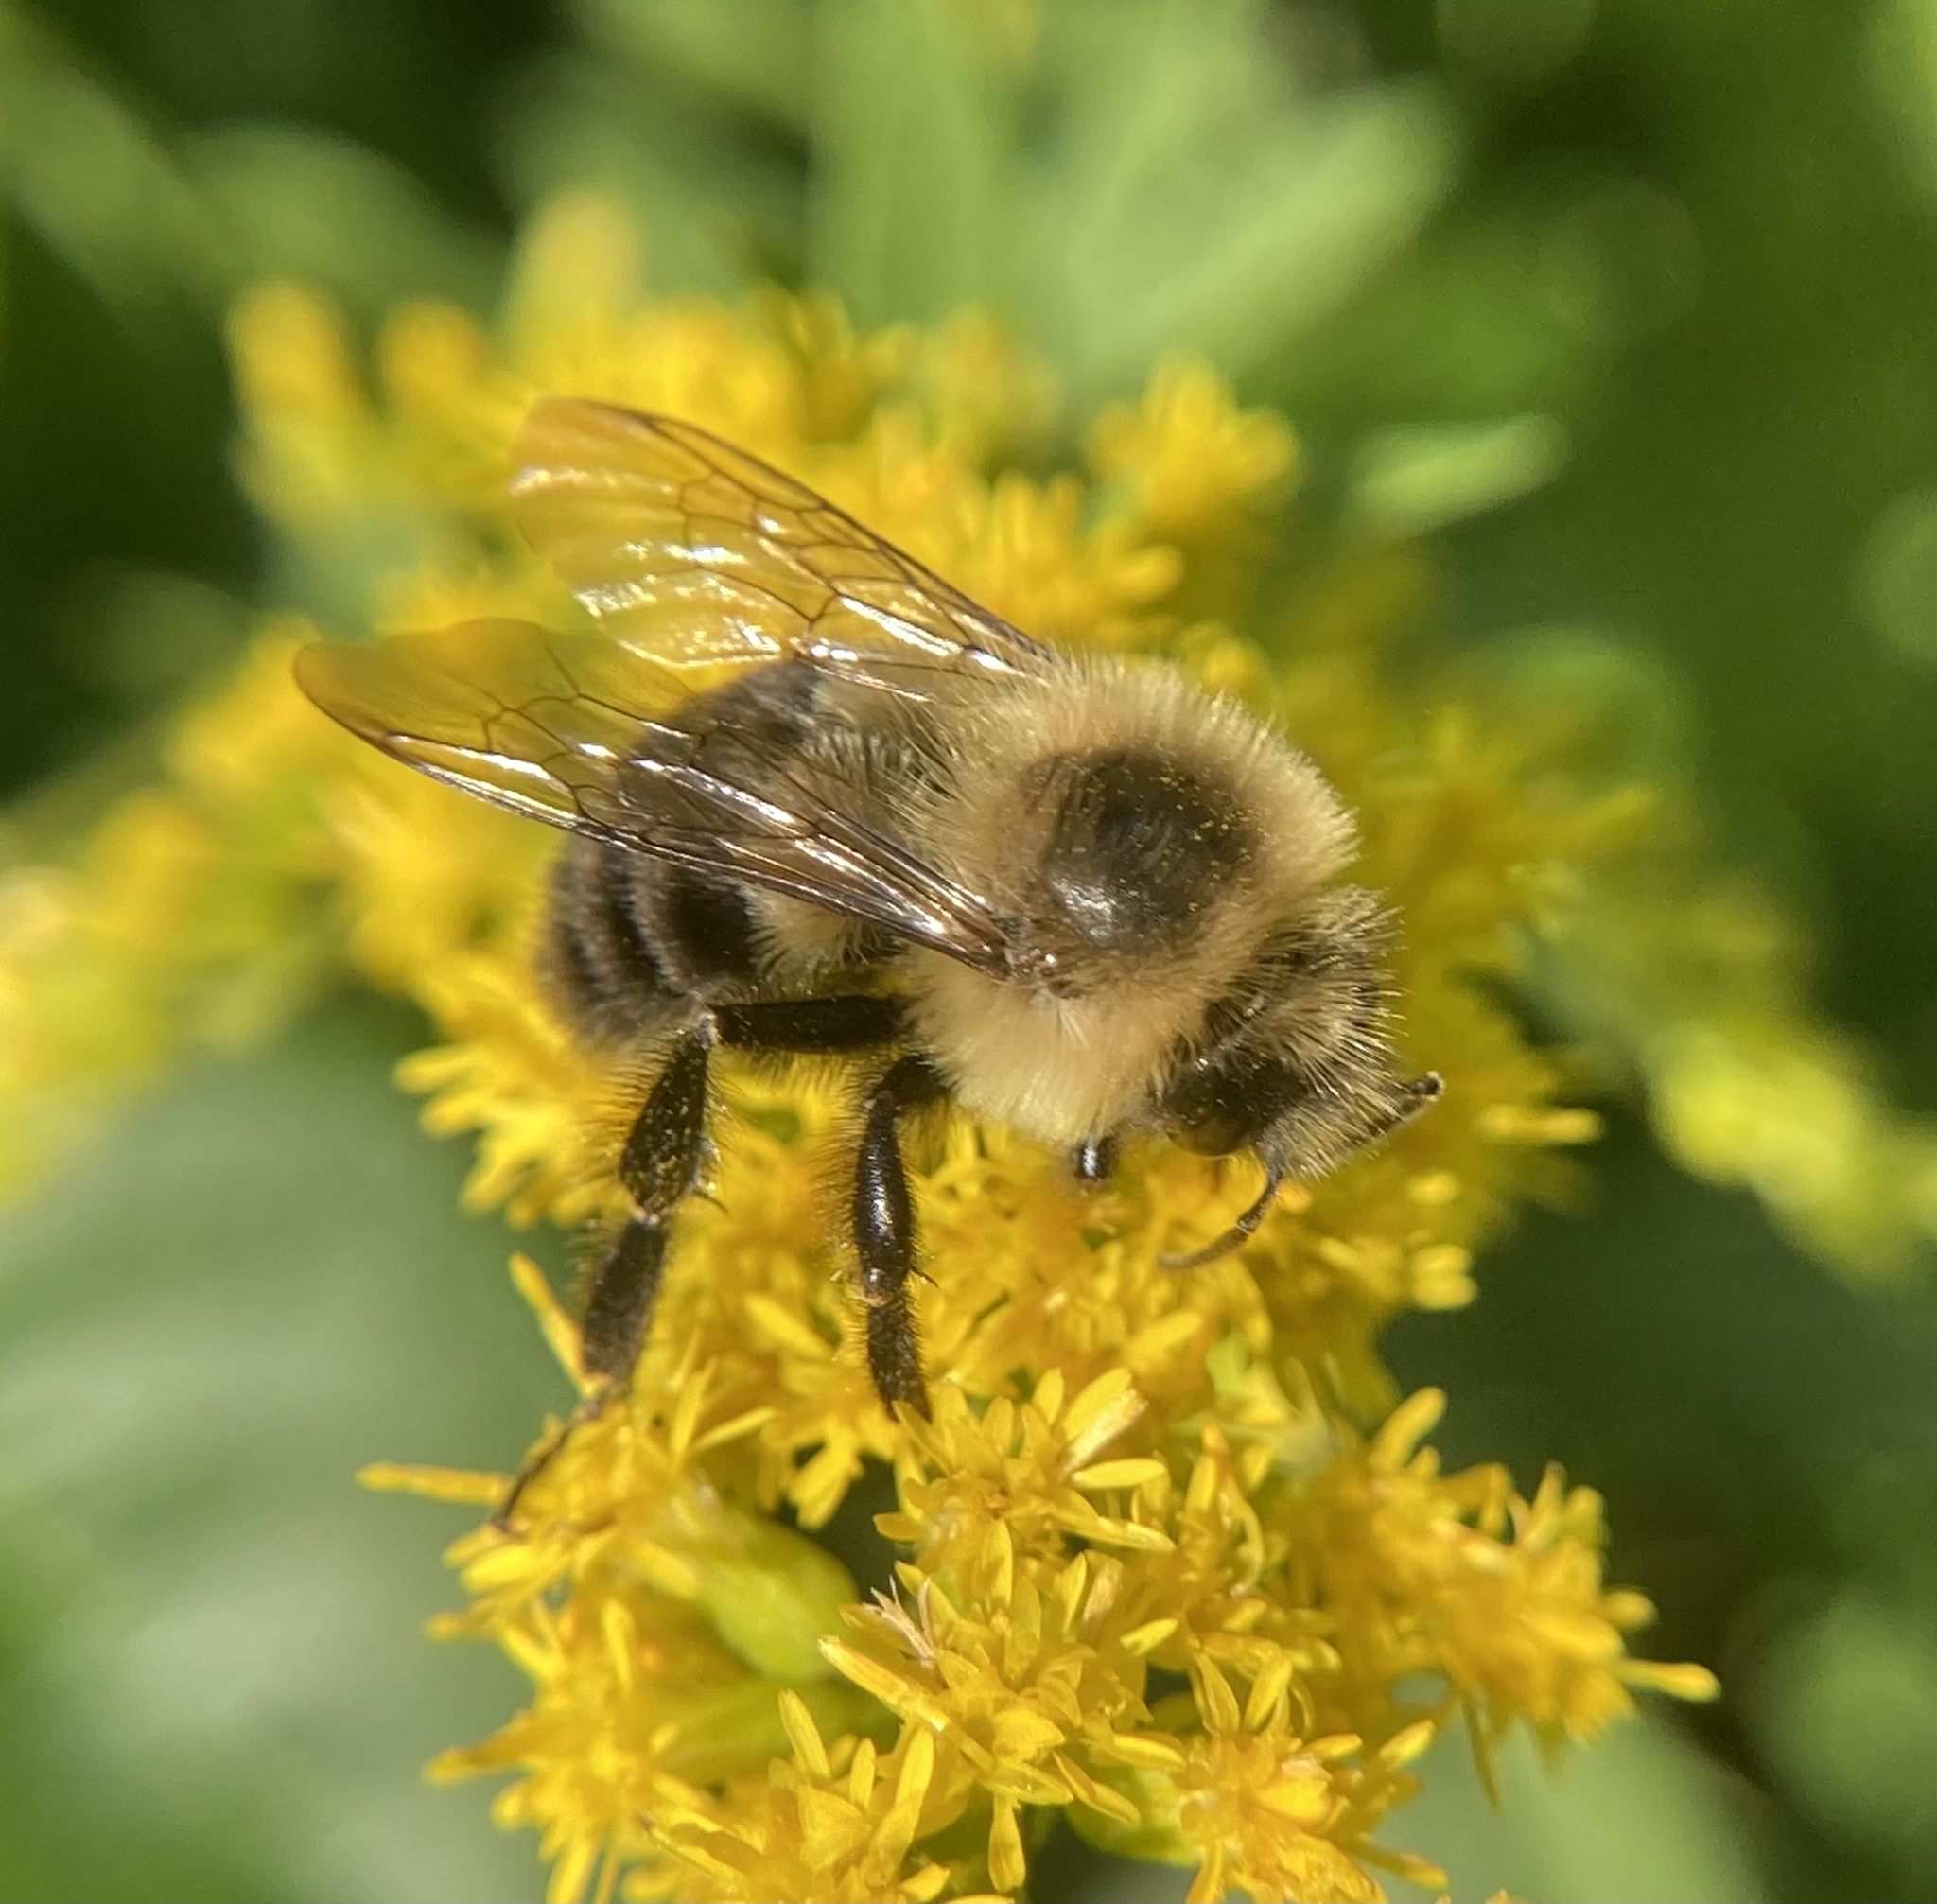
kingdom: Animalia
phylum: Arthropoda
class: Insecta
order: Hymenoptera
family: Apidae
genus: Bombus
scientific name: Bombus impatiens
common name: Common eastern bumble bee
